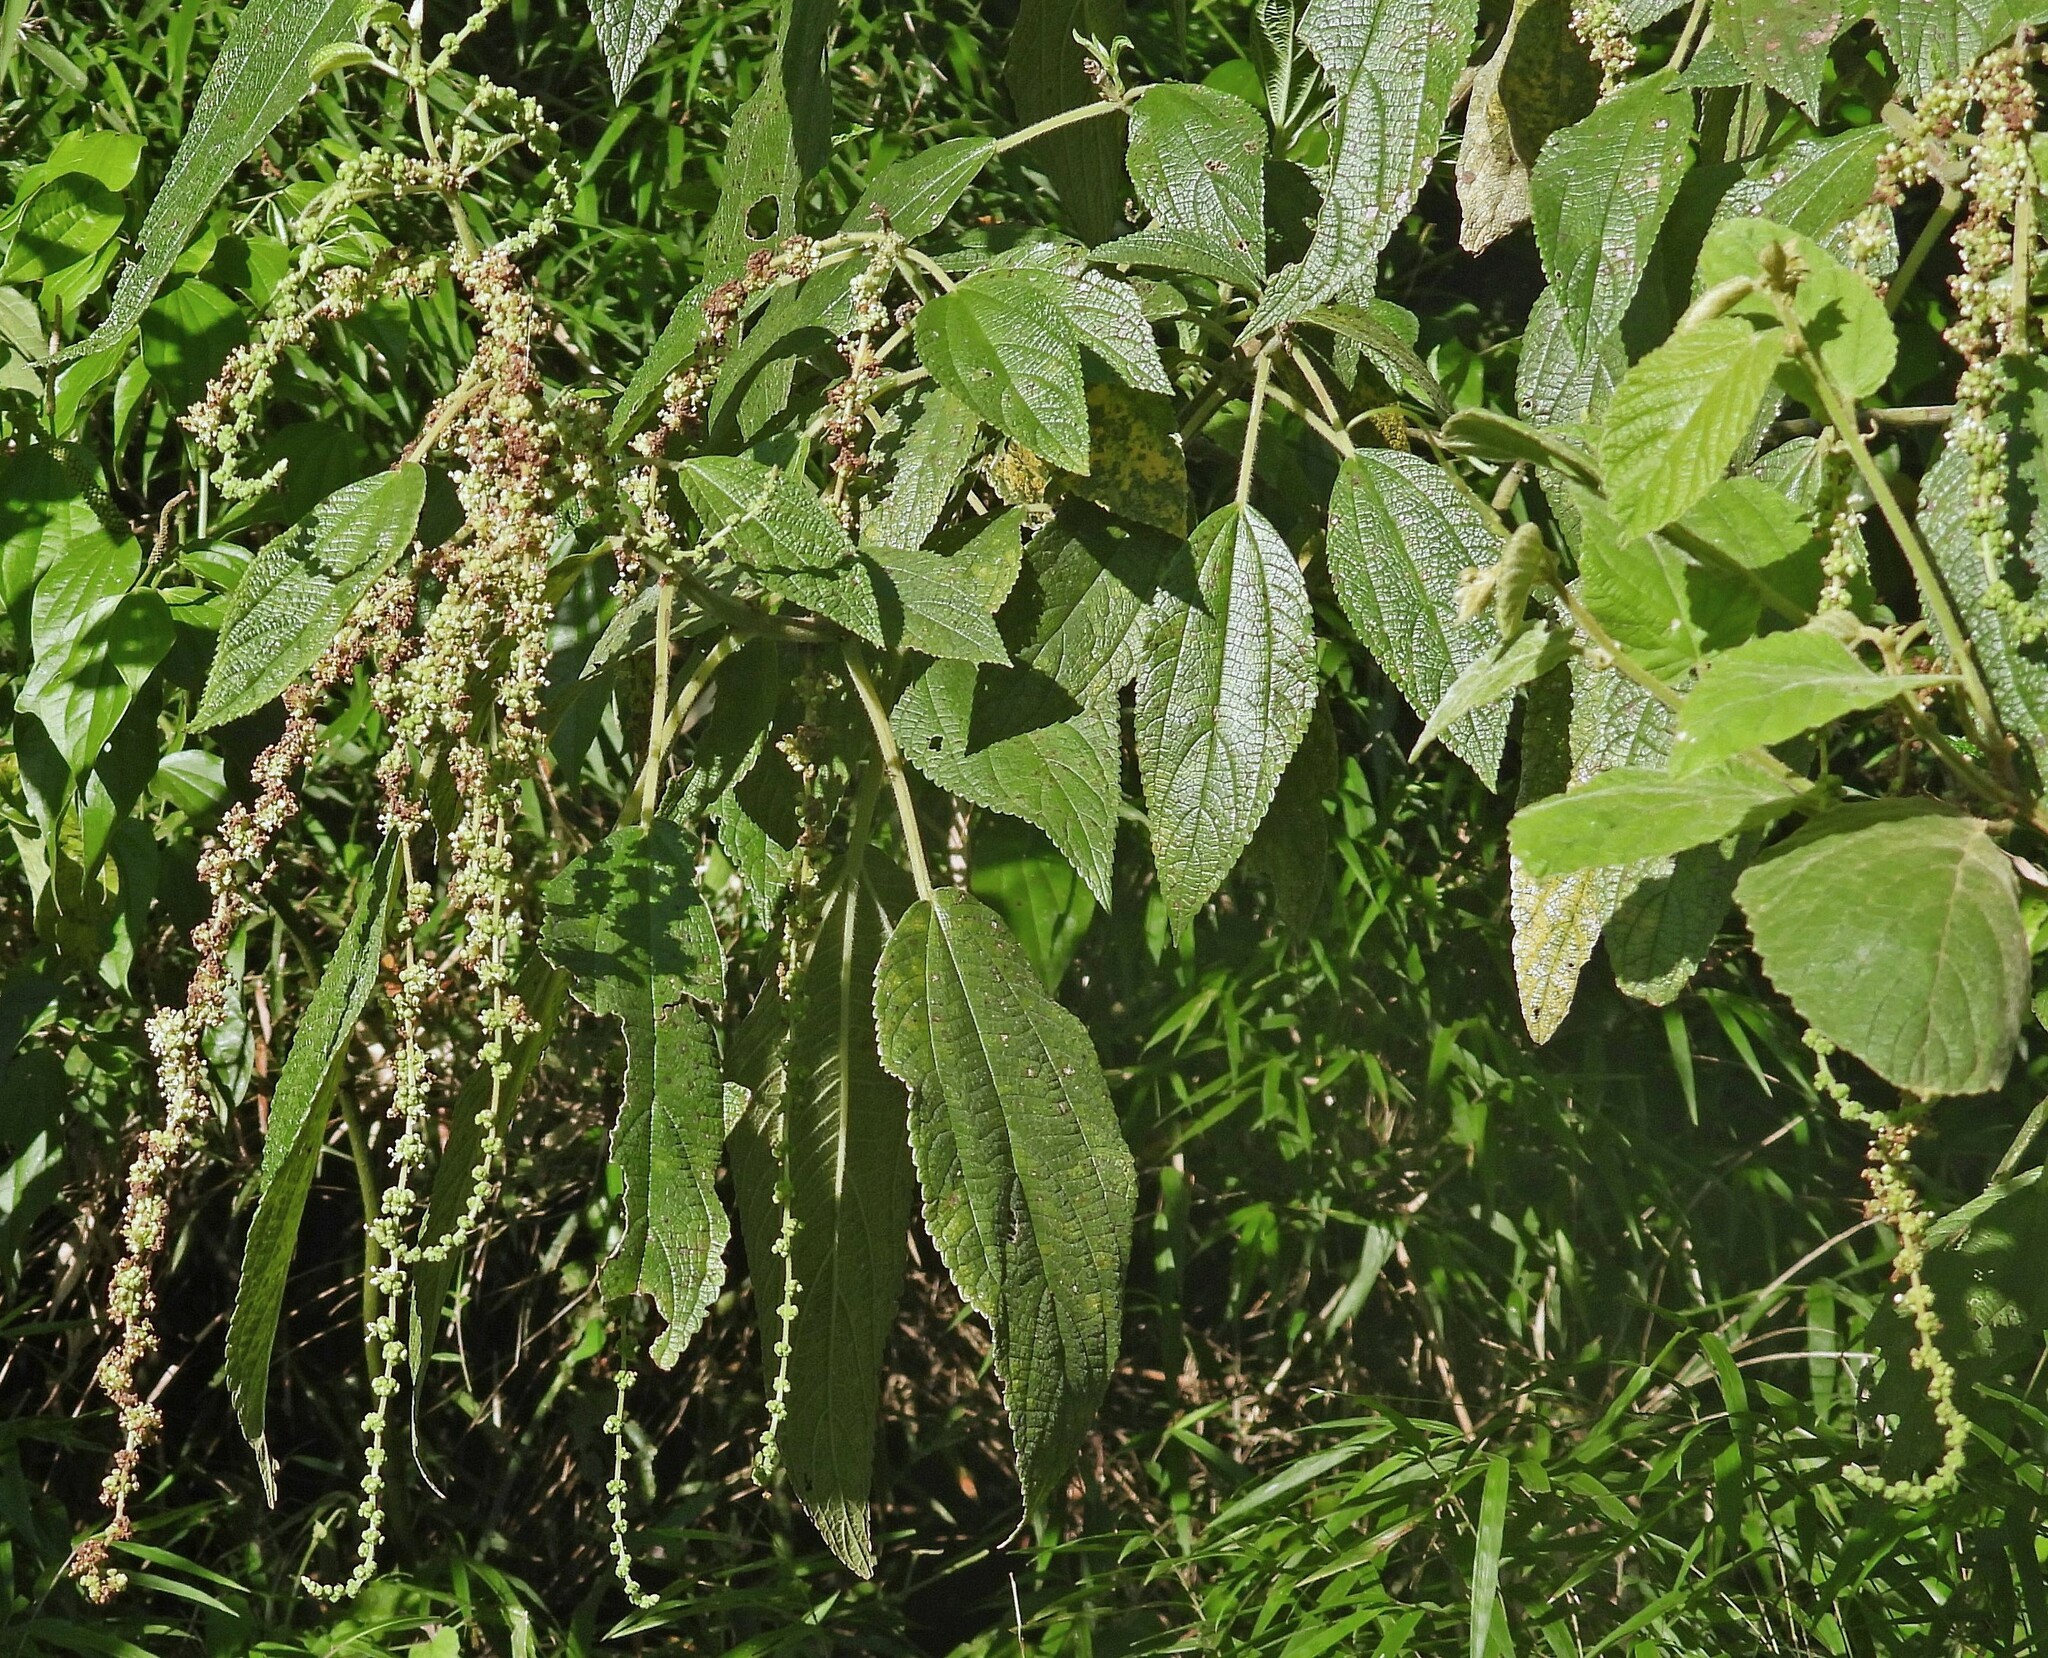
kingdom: Plantae
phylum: Tracheophyta
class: Magnoliopsida
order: Rosales
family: Urticaceae
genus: Boehmeria
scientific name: Boehmeria caudata
